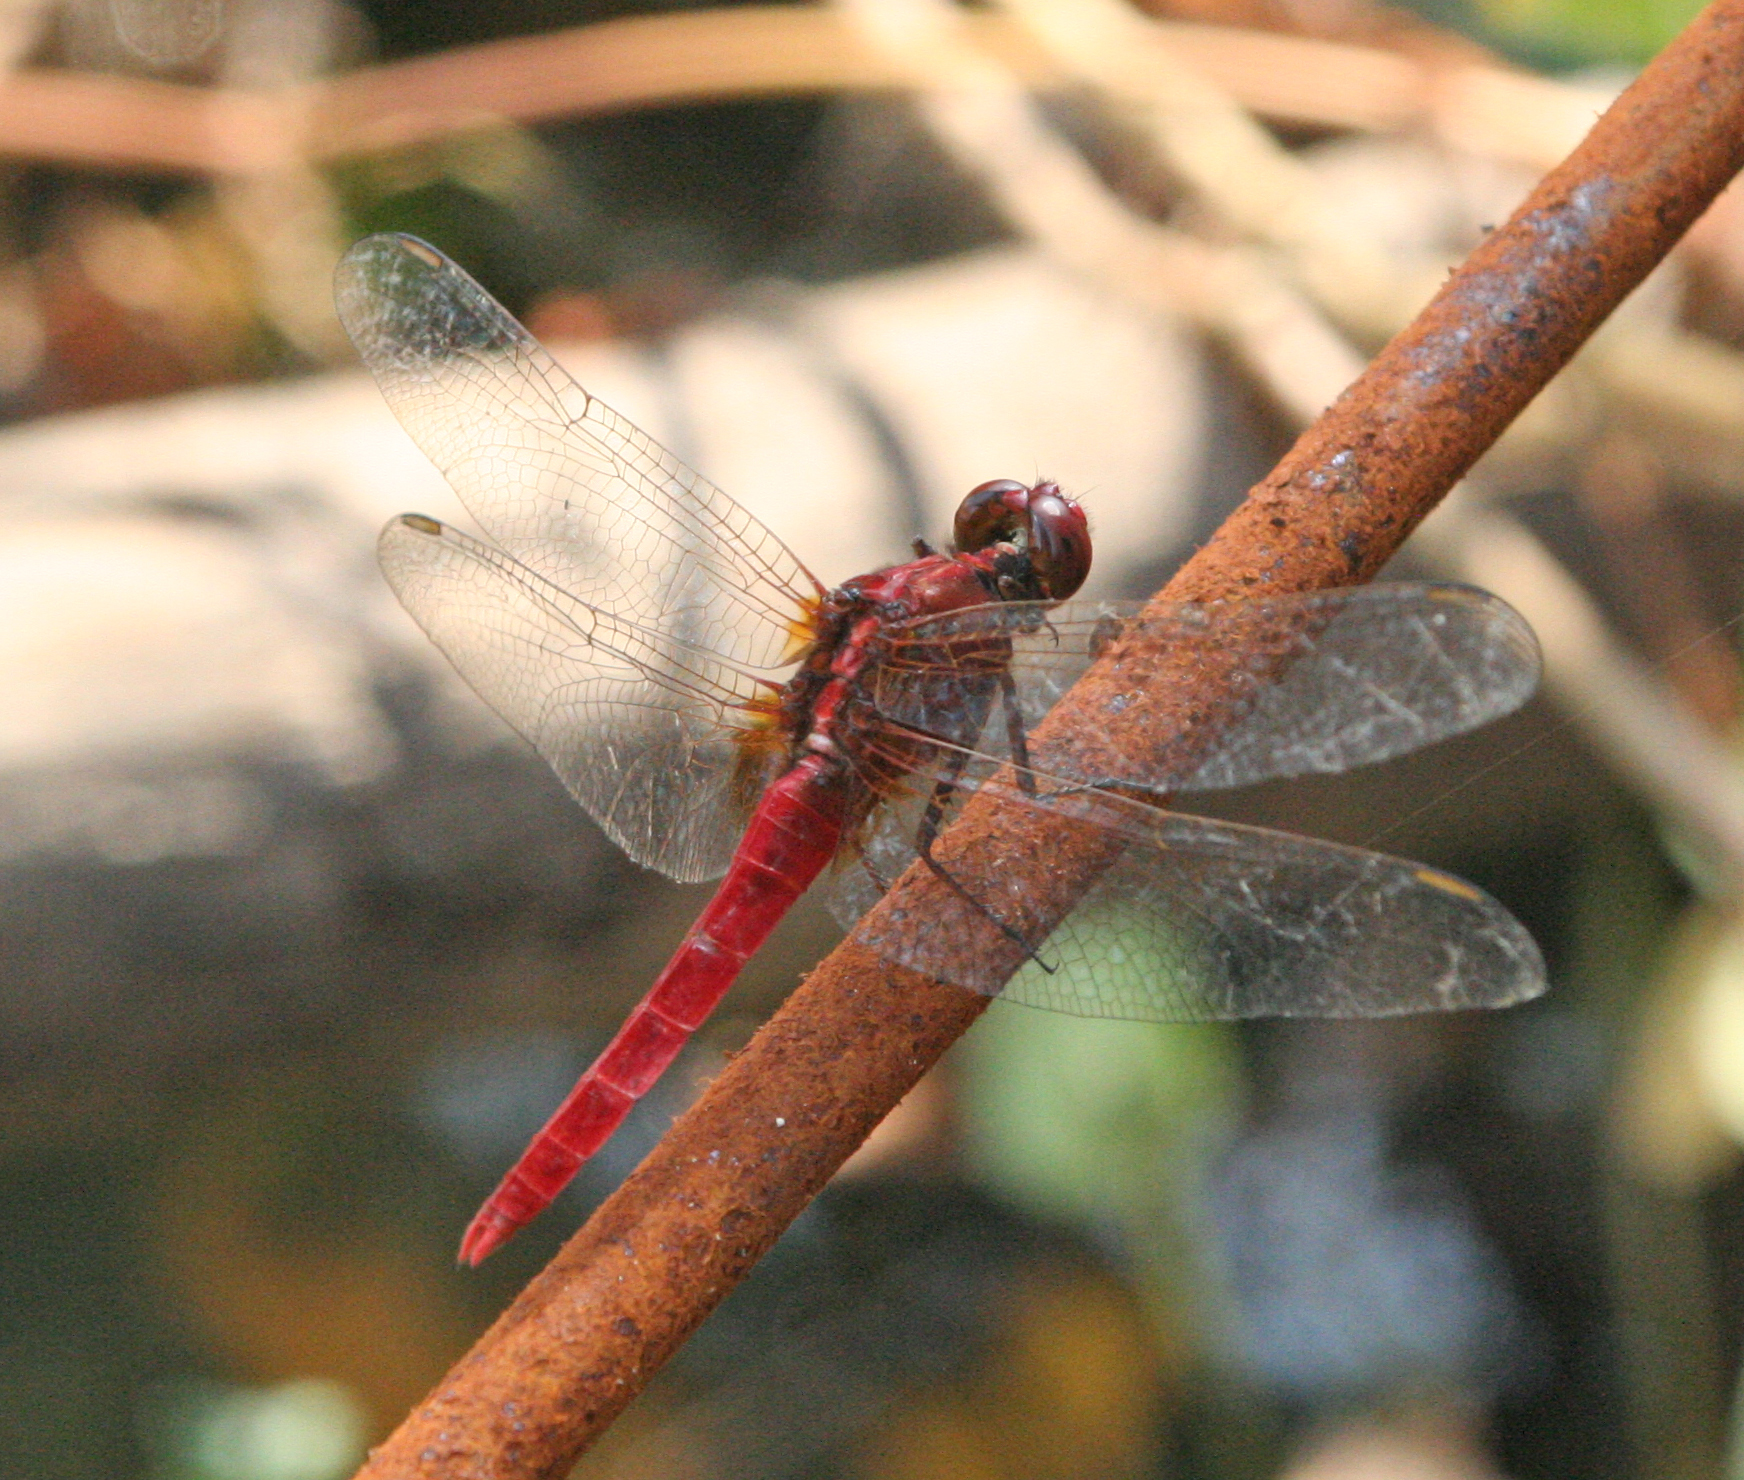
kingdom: Animalia
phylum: Arthropoda
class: Insecta
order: Odonata
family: Libellulidae
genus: Rhodothemis
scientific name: Rhodothemis rufa
